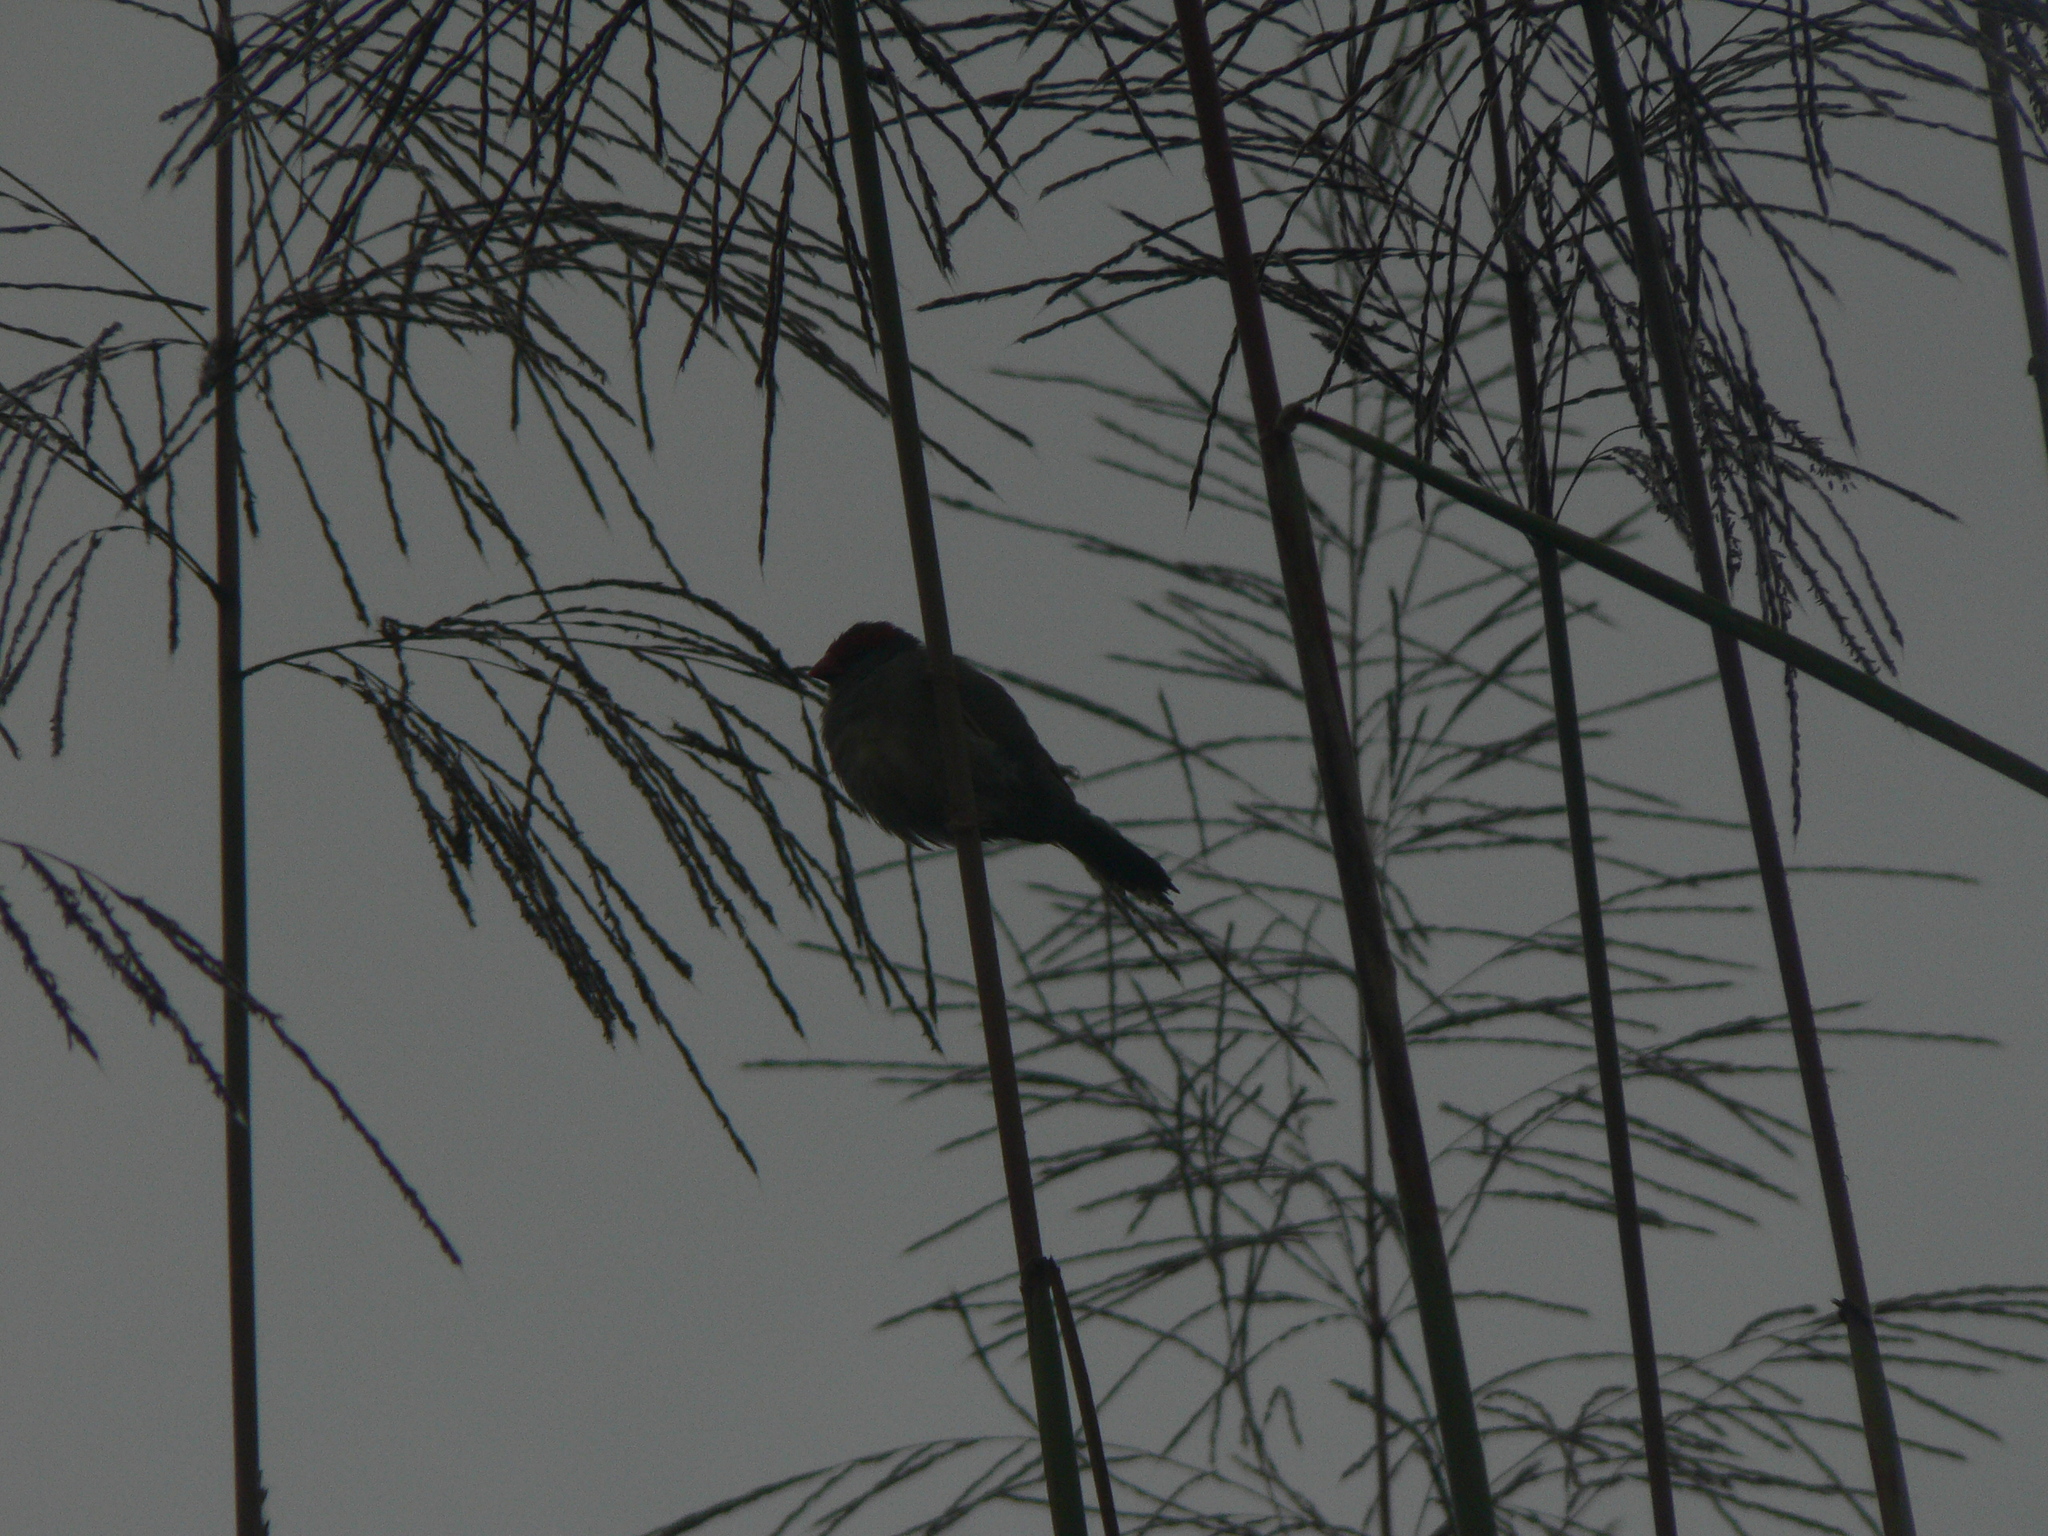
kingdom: Animalia
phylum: Chordata
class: Aves
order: Passeriformes
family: Estrildidae
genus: Neochmia
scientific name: Neochmia temporalis
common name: Red-browed finch
